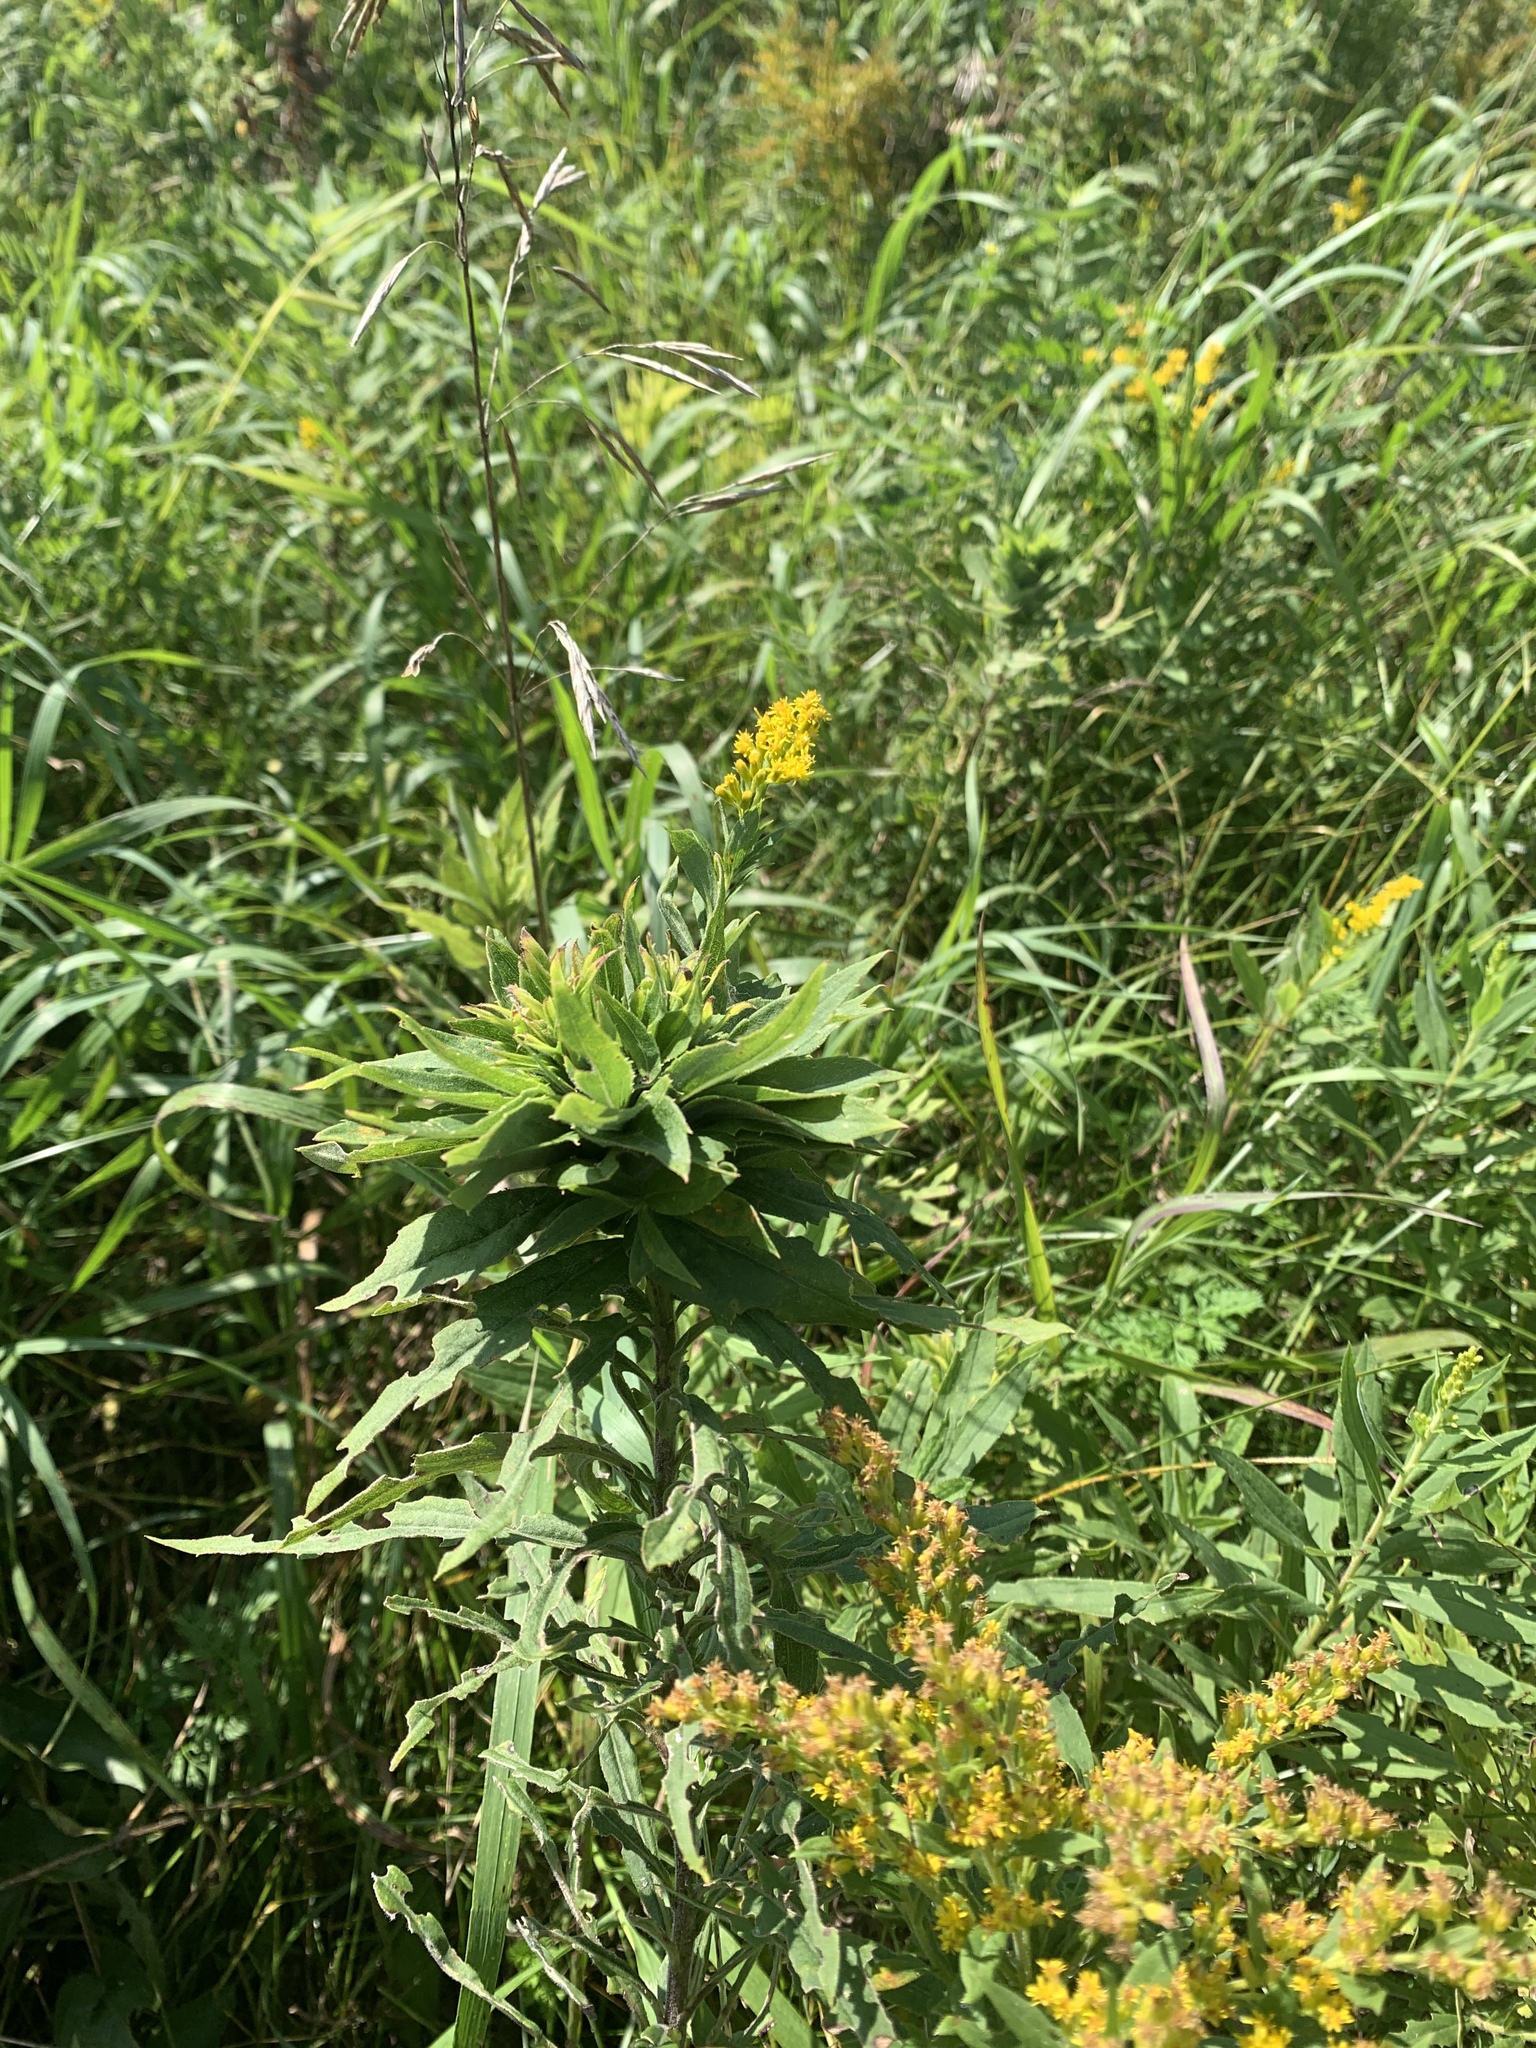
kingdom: Animalia
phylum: Arthropoda
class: Insecta
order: Diptera
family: Cecidomyiidae
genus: Rhopalomyia
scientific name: Rhopalomyia solidaginis
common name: Goldenrod bunch gall midge
